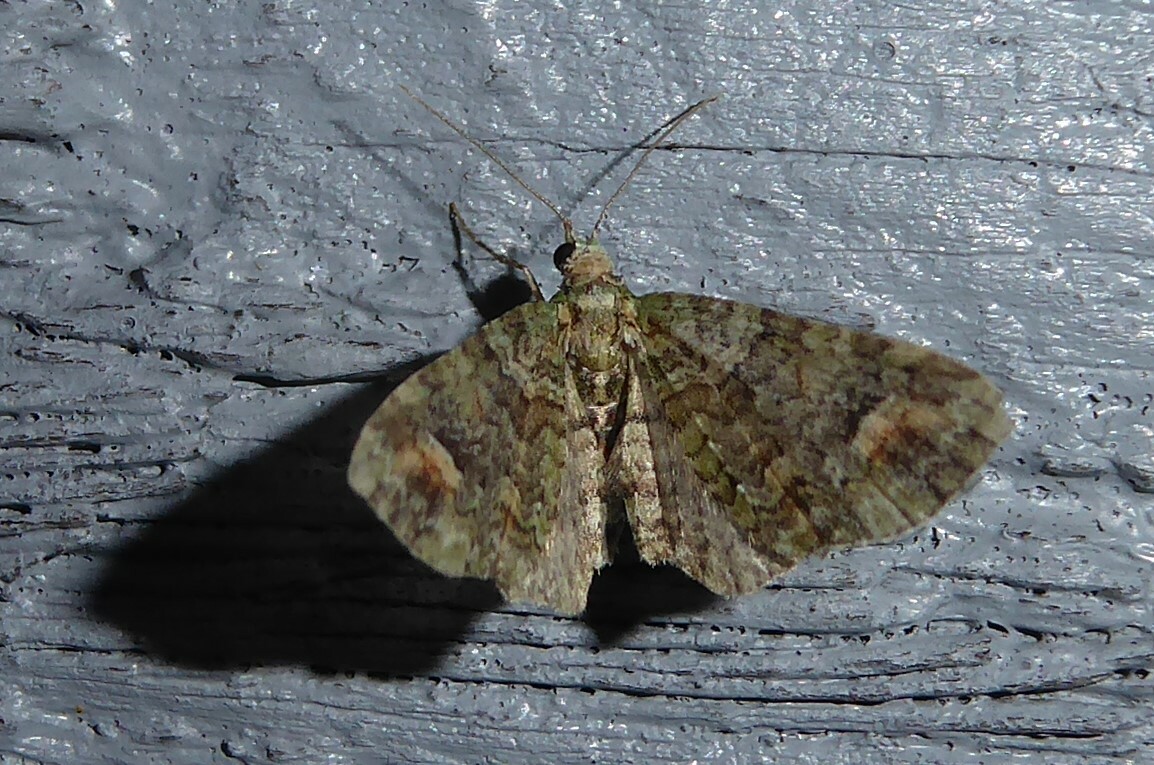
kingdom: Animalia
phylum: Arthropoda
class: Insecta
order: Lepidoptera
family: Geometridae
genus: Idaea
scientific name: Idaea mutanda
